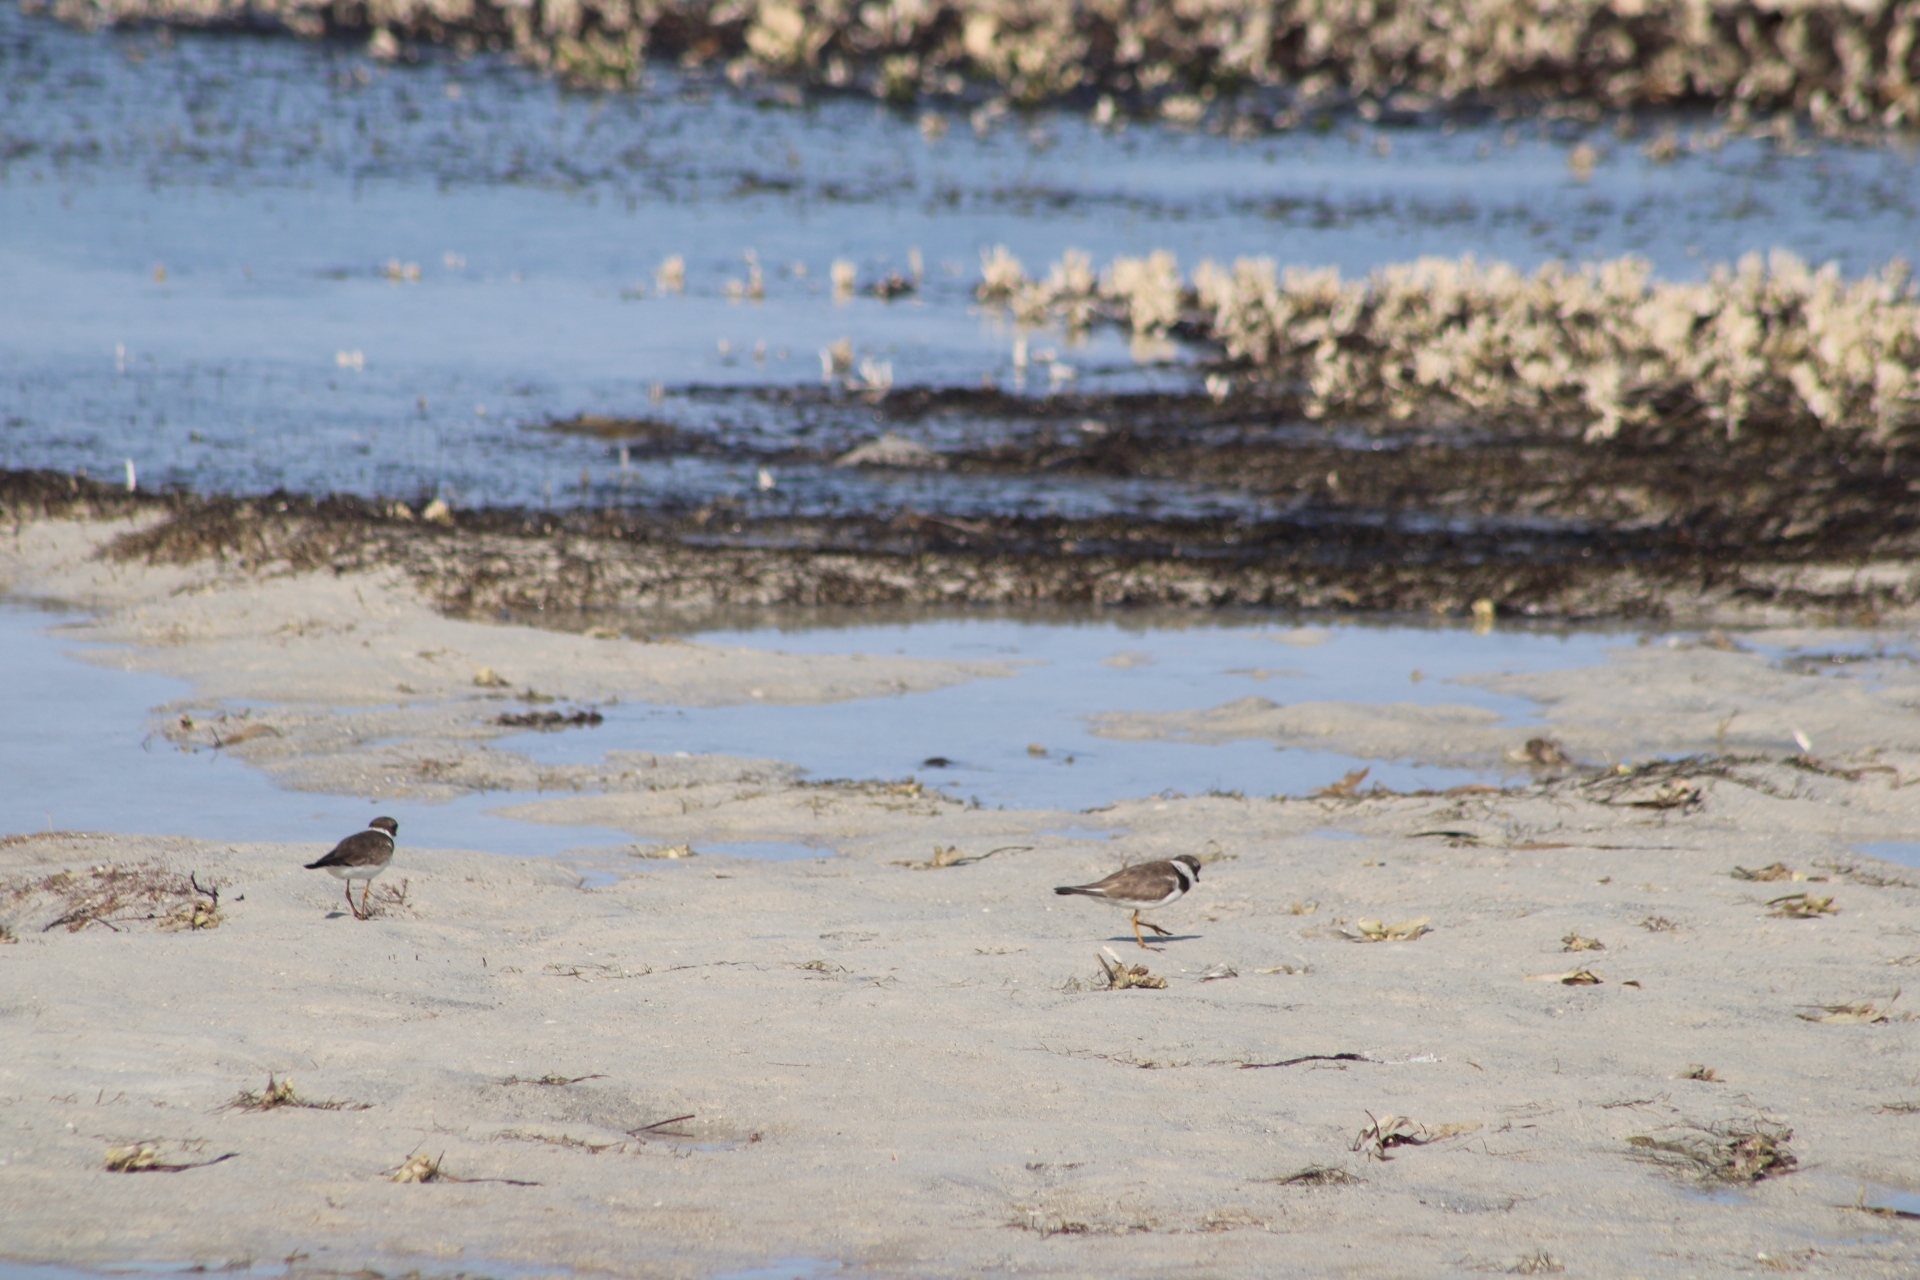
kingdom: Animalia
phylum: Chordata
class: Aves
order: Charadriiformes
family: Charadriidae
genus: Charadrius
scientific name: Charadrius semipalmatus
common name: Semipalmated plover
